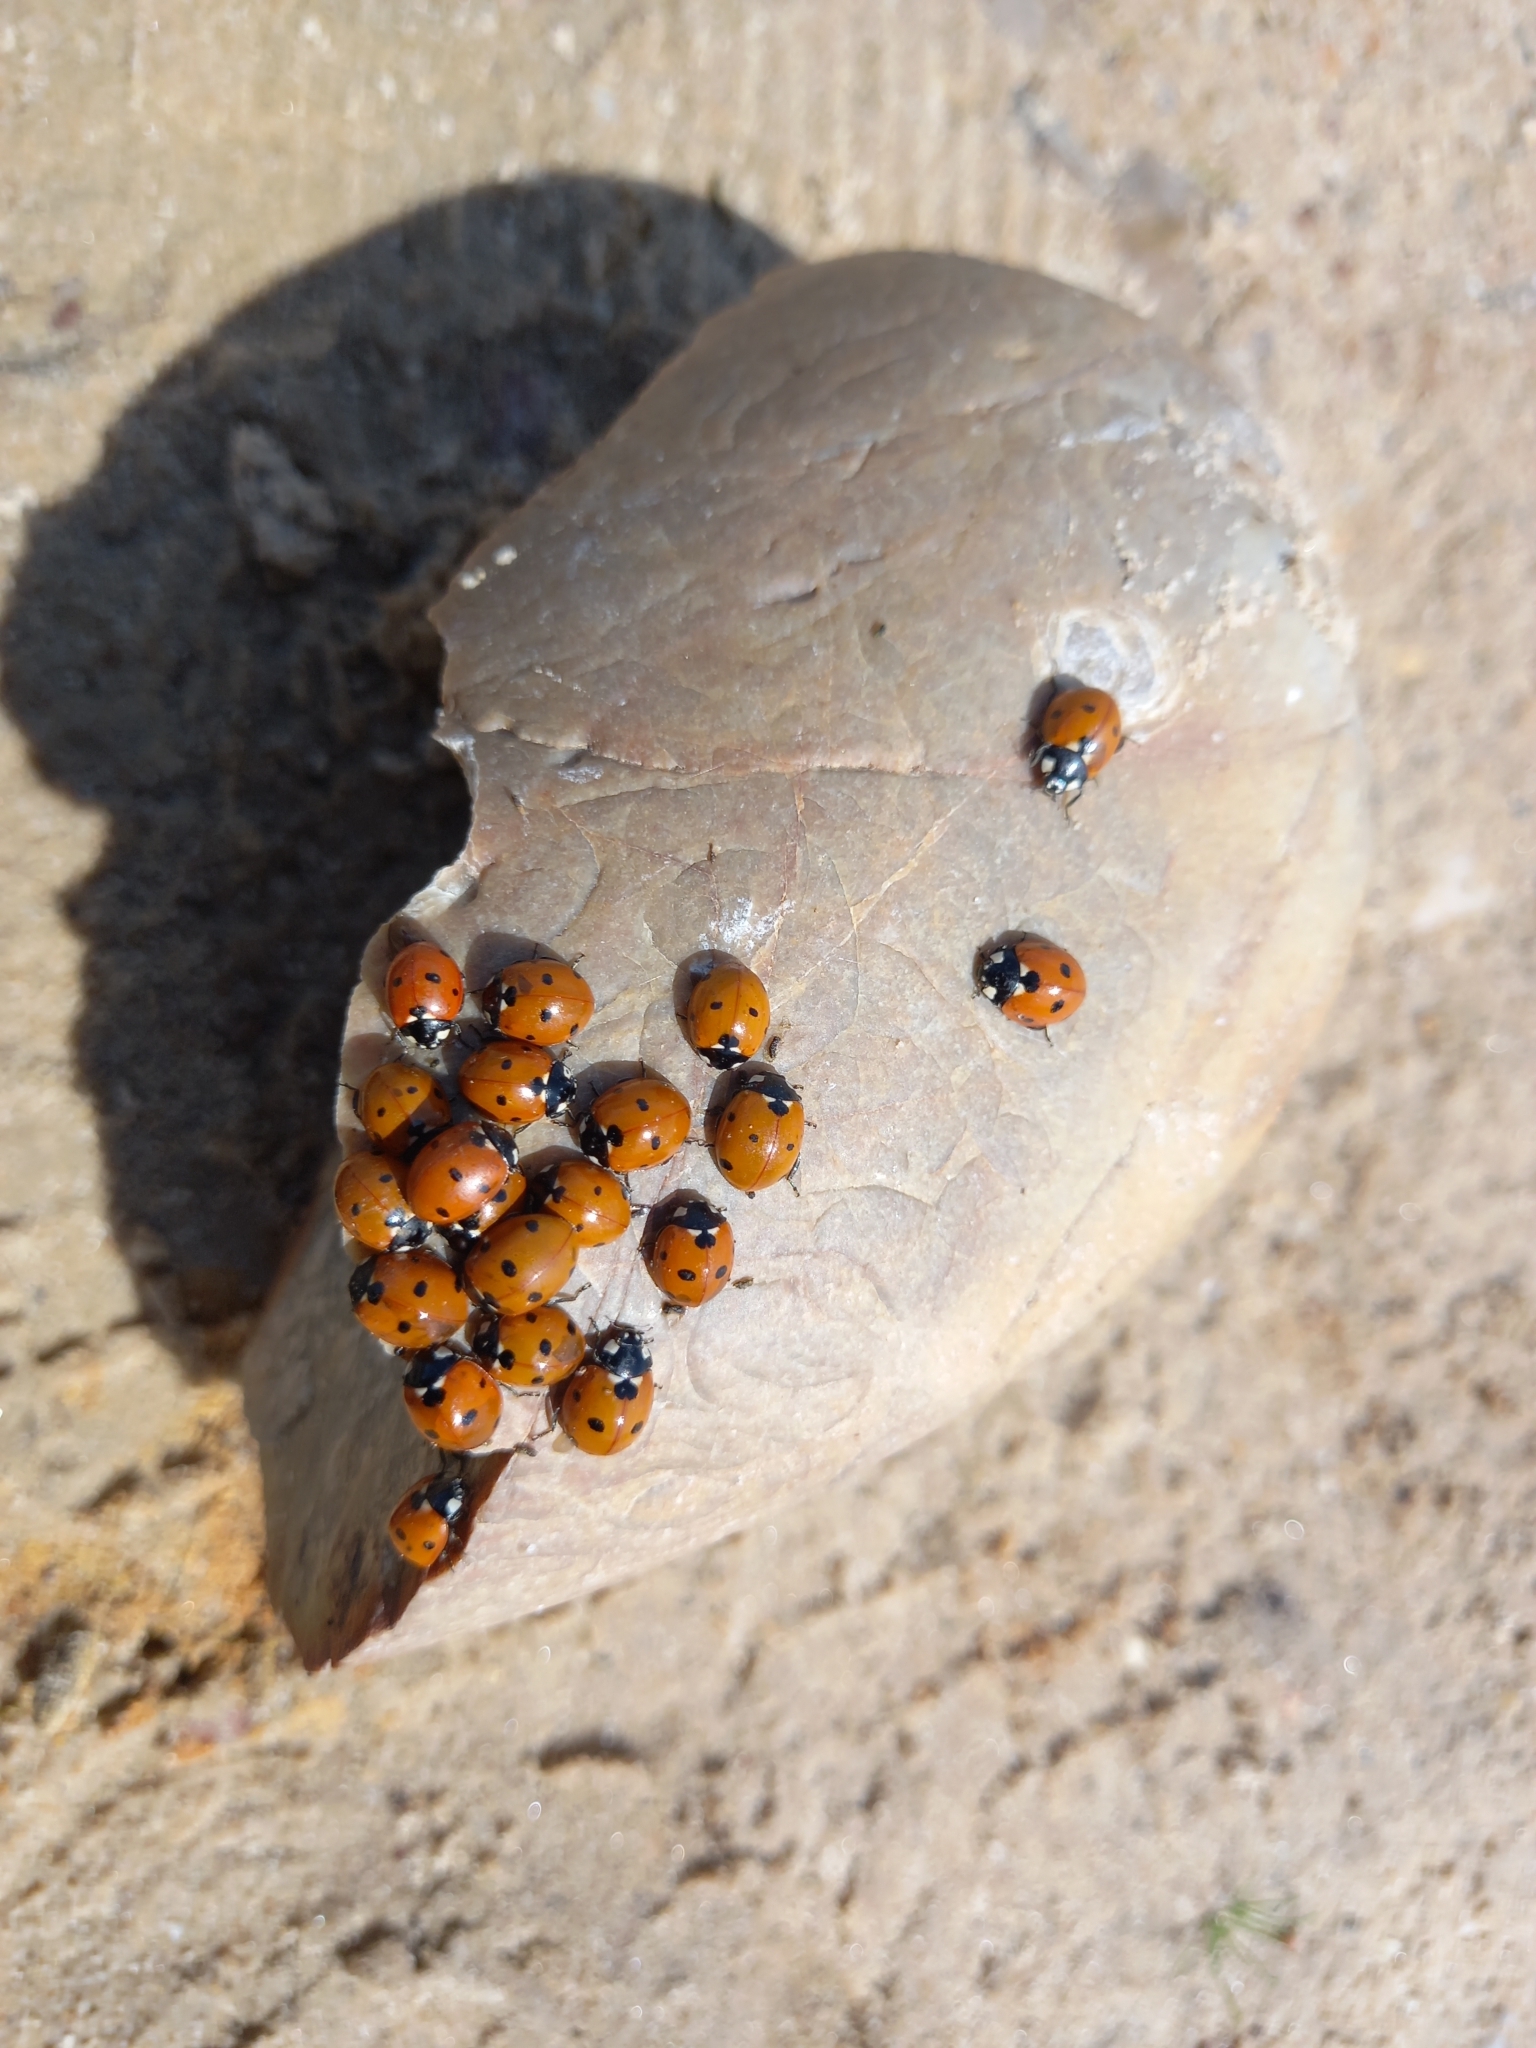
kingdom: Animalia
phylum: Arthropoda
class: Insecta
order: Coleoptera
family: Coccinellidae
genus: Coccinella
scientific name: Coccinella septempunctata
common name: Sevenspotted lady beetle
